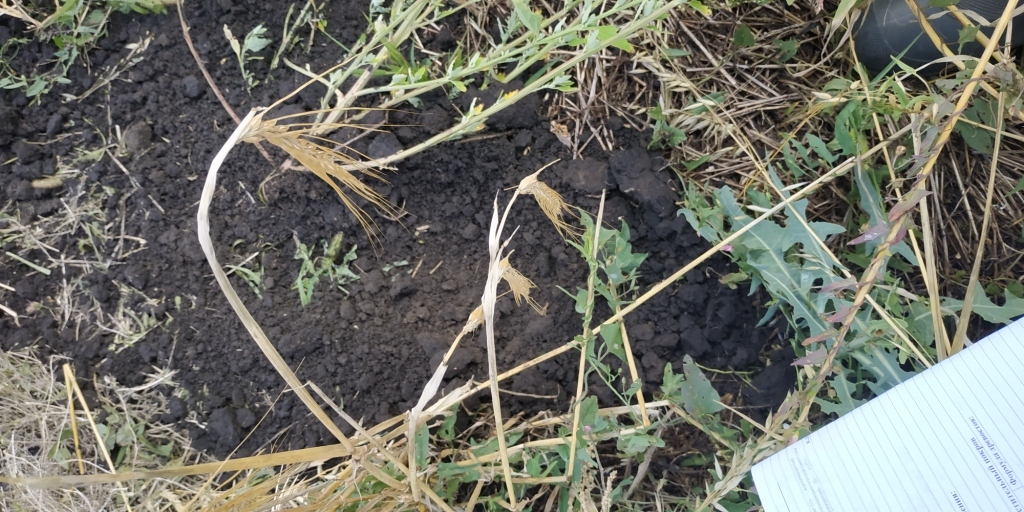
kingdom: Plantae
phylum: Tracheophyta
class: Liliopsida
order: Poales
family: Poaceae
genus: Hordeum
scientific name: Hordeum vulgare
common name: Common barley
